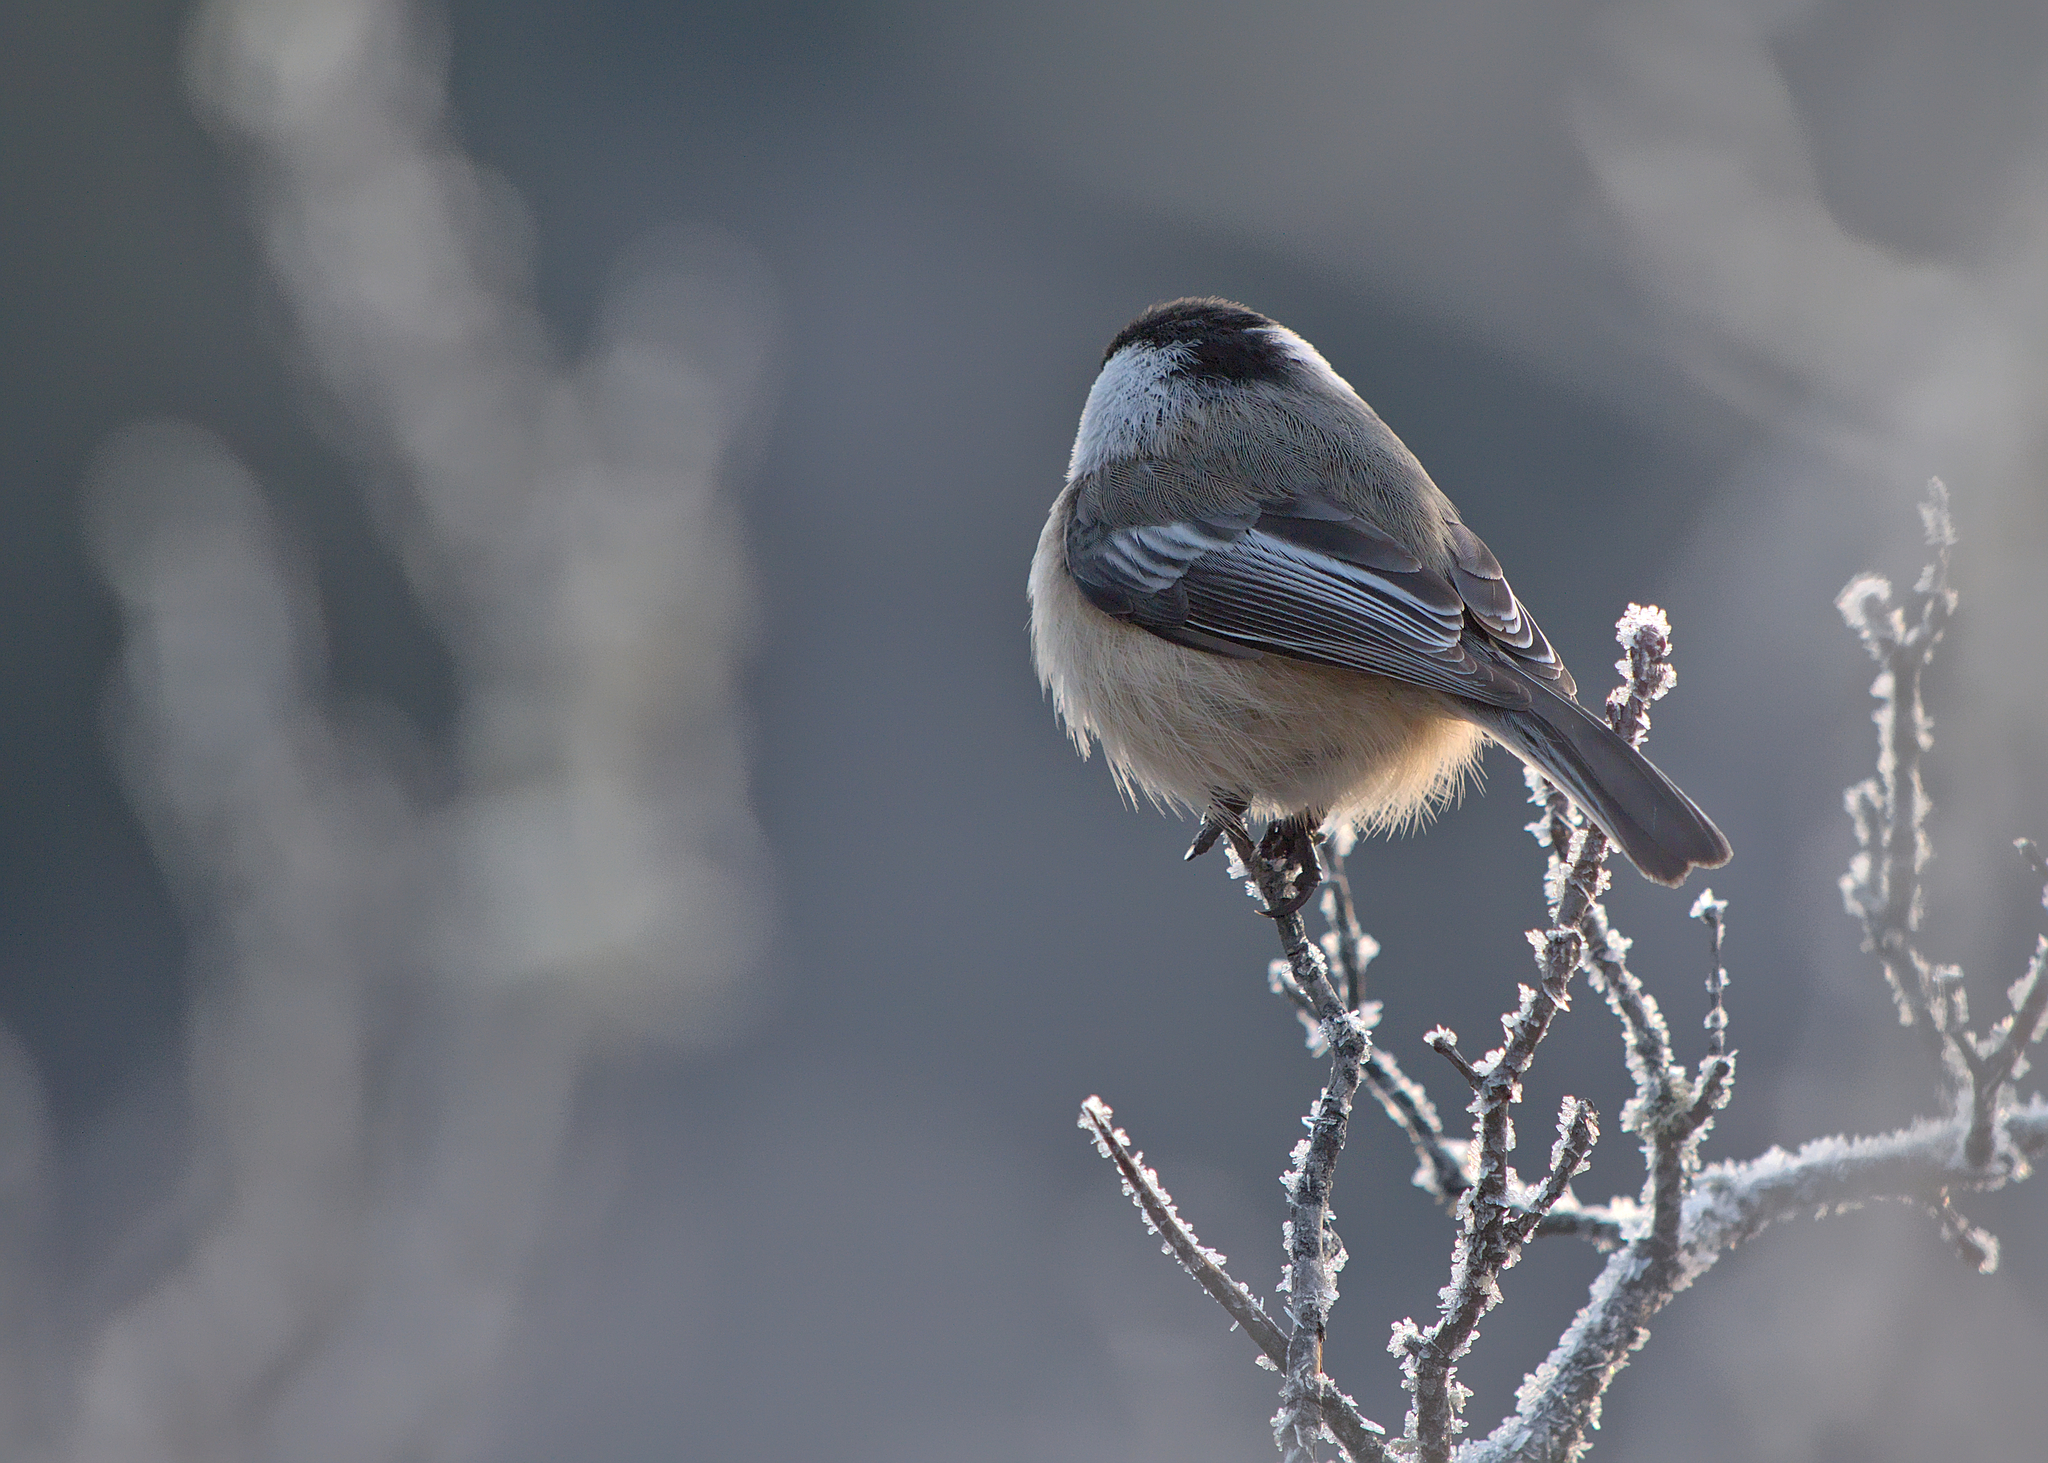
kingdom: Animalia
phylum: Chordata
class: Aves
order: Passeriformes
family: Paridae
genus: Poecile
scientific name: Poecile atricapillus
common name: Black-capped chickadee
